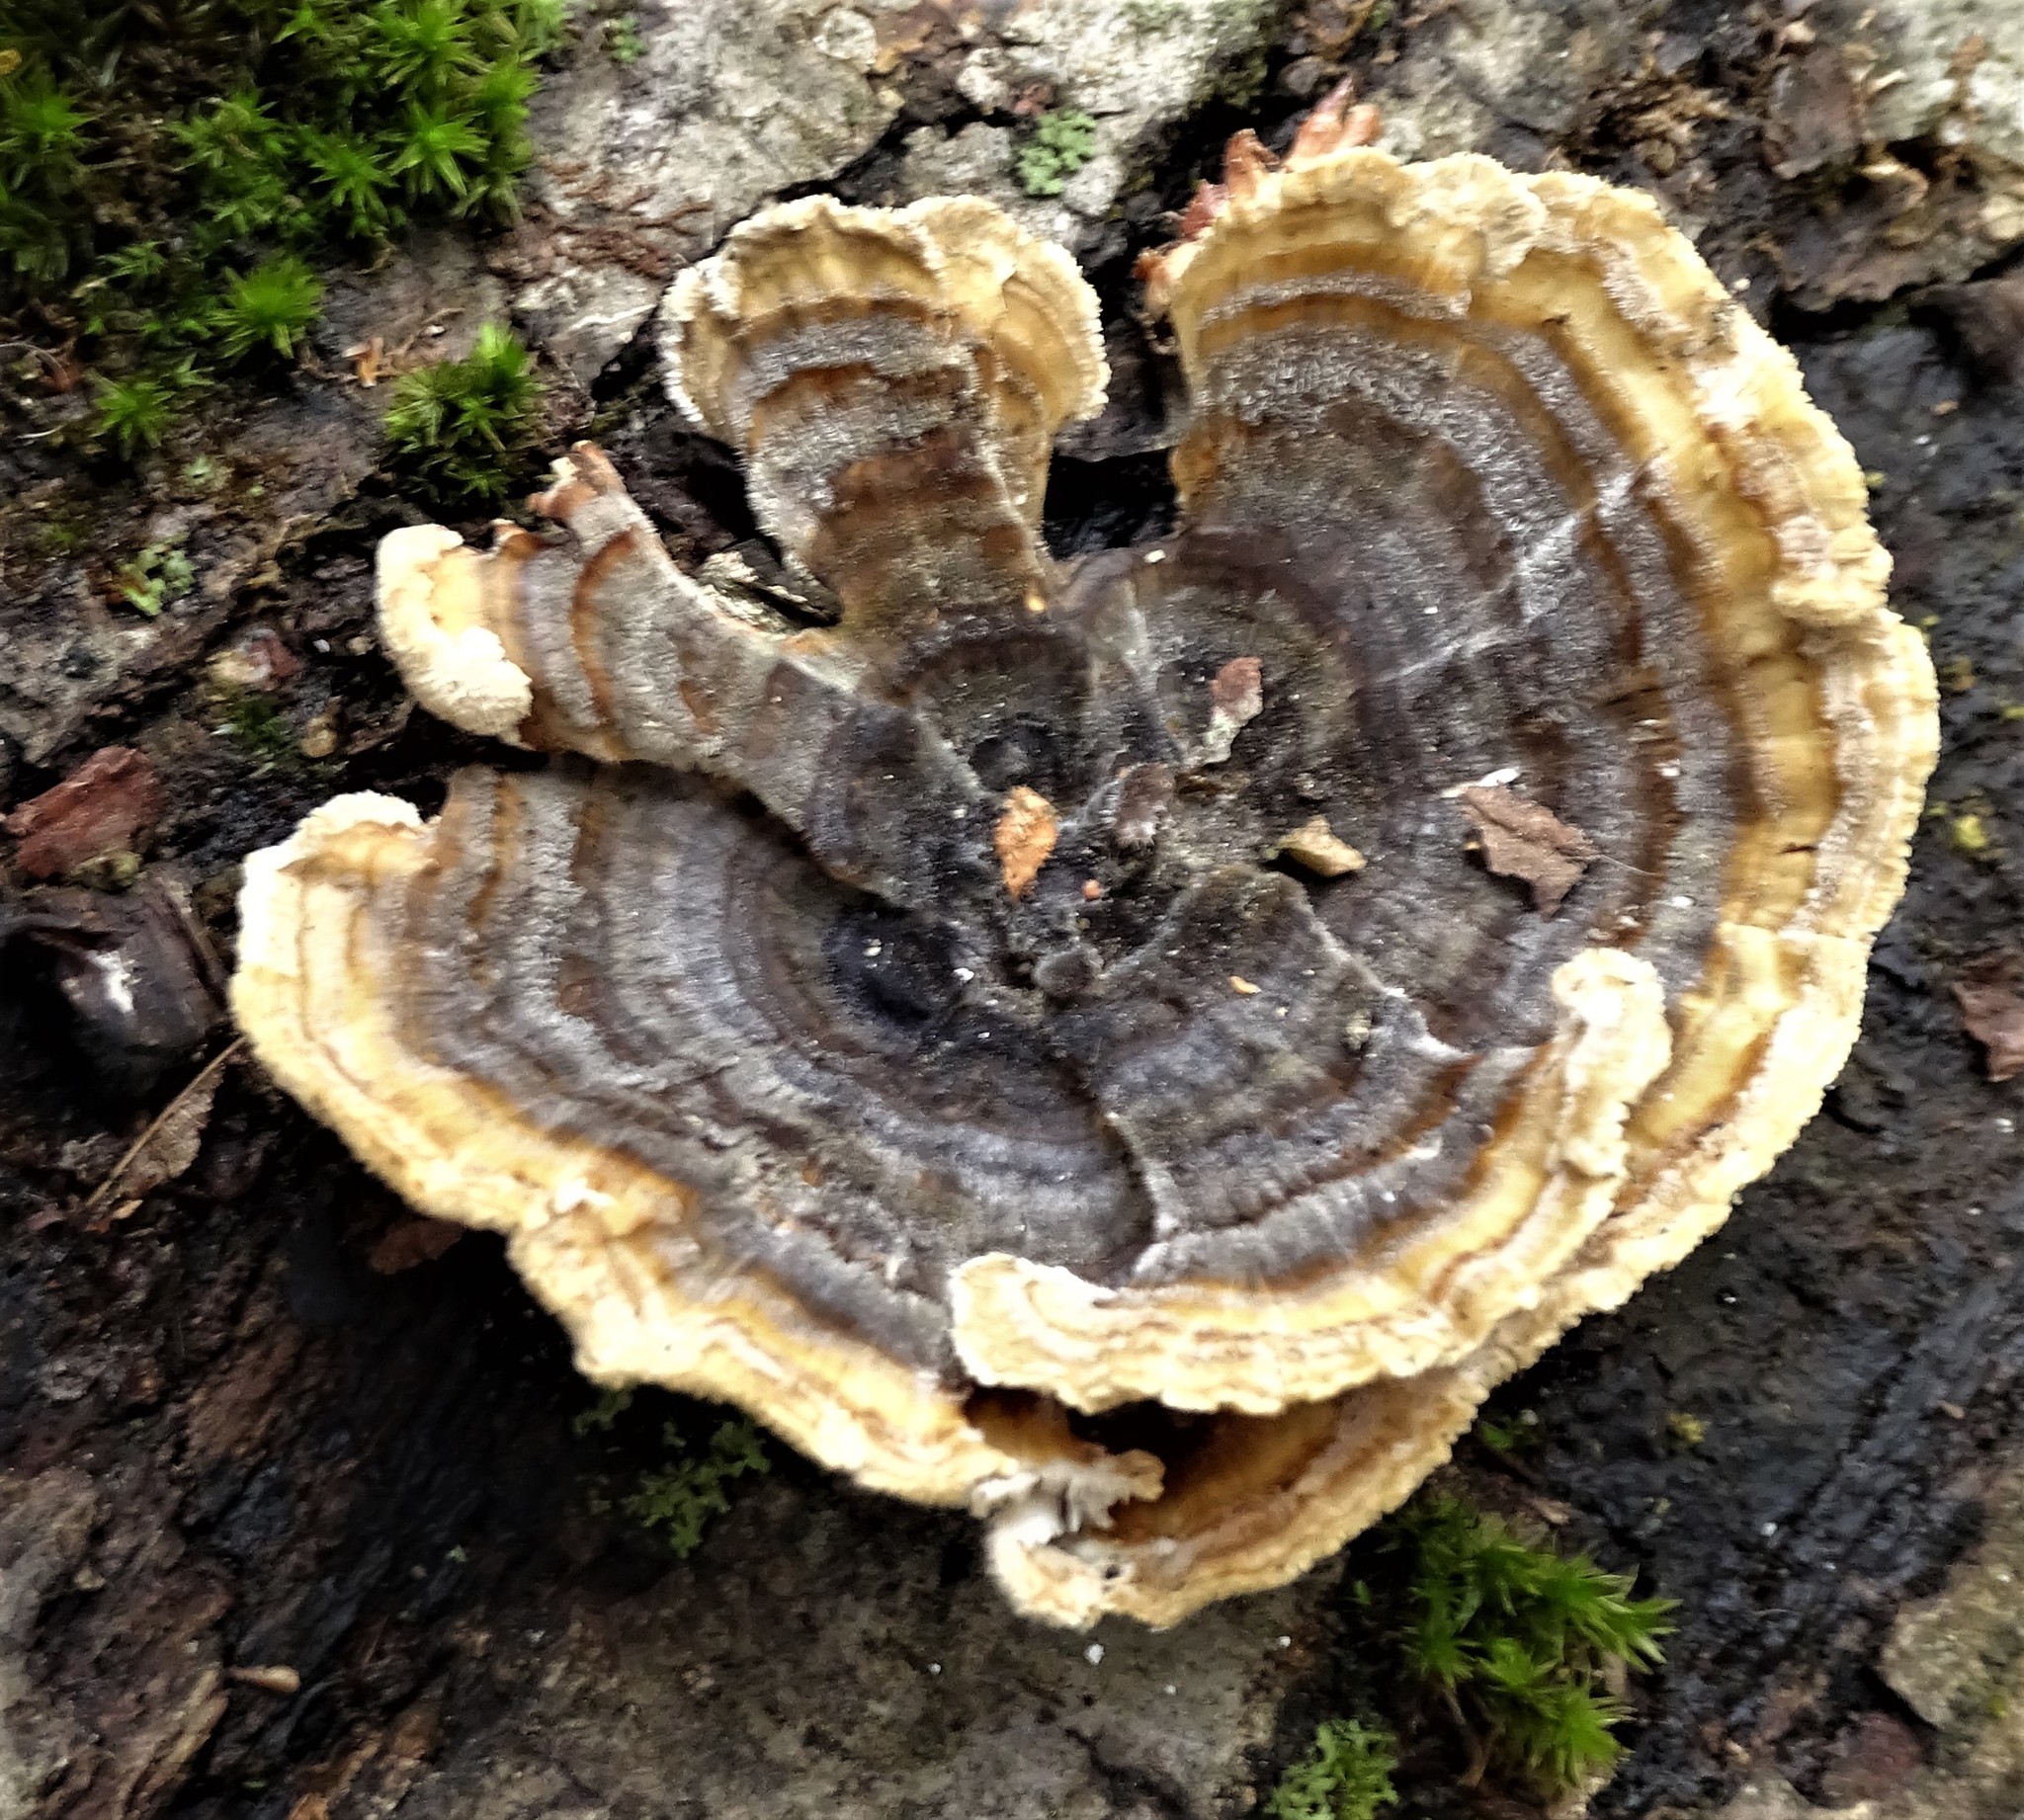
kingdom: Fungi
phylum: Basidiomycota
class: Agaricomycetes
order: Polyporales
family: Polyporaceae
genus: Trametes
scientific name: Trametes versicolor
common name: Turkeytail
